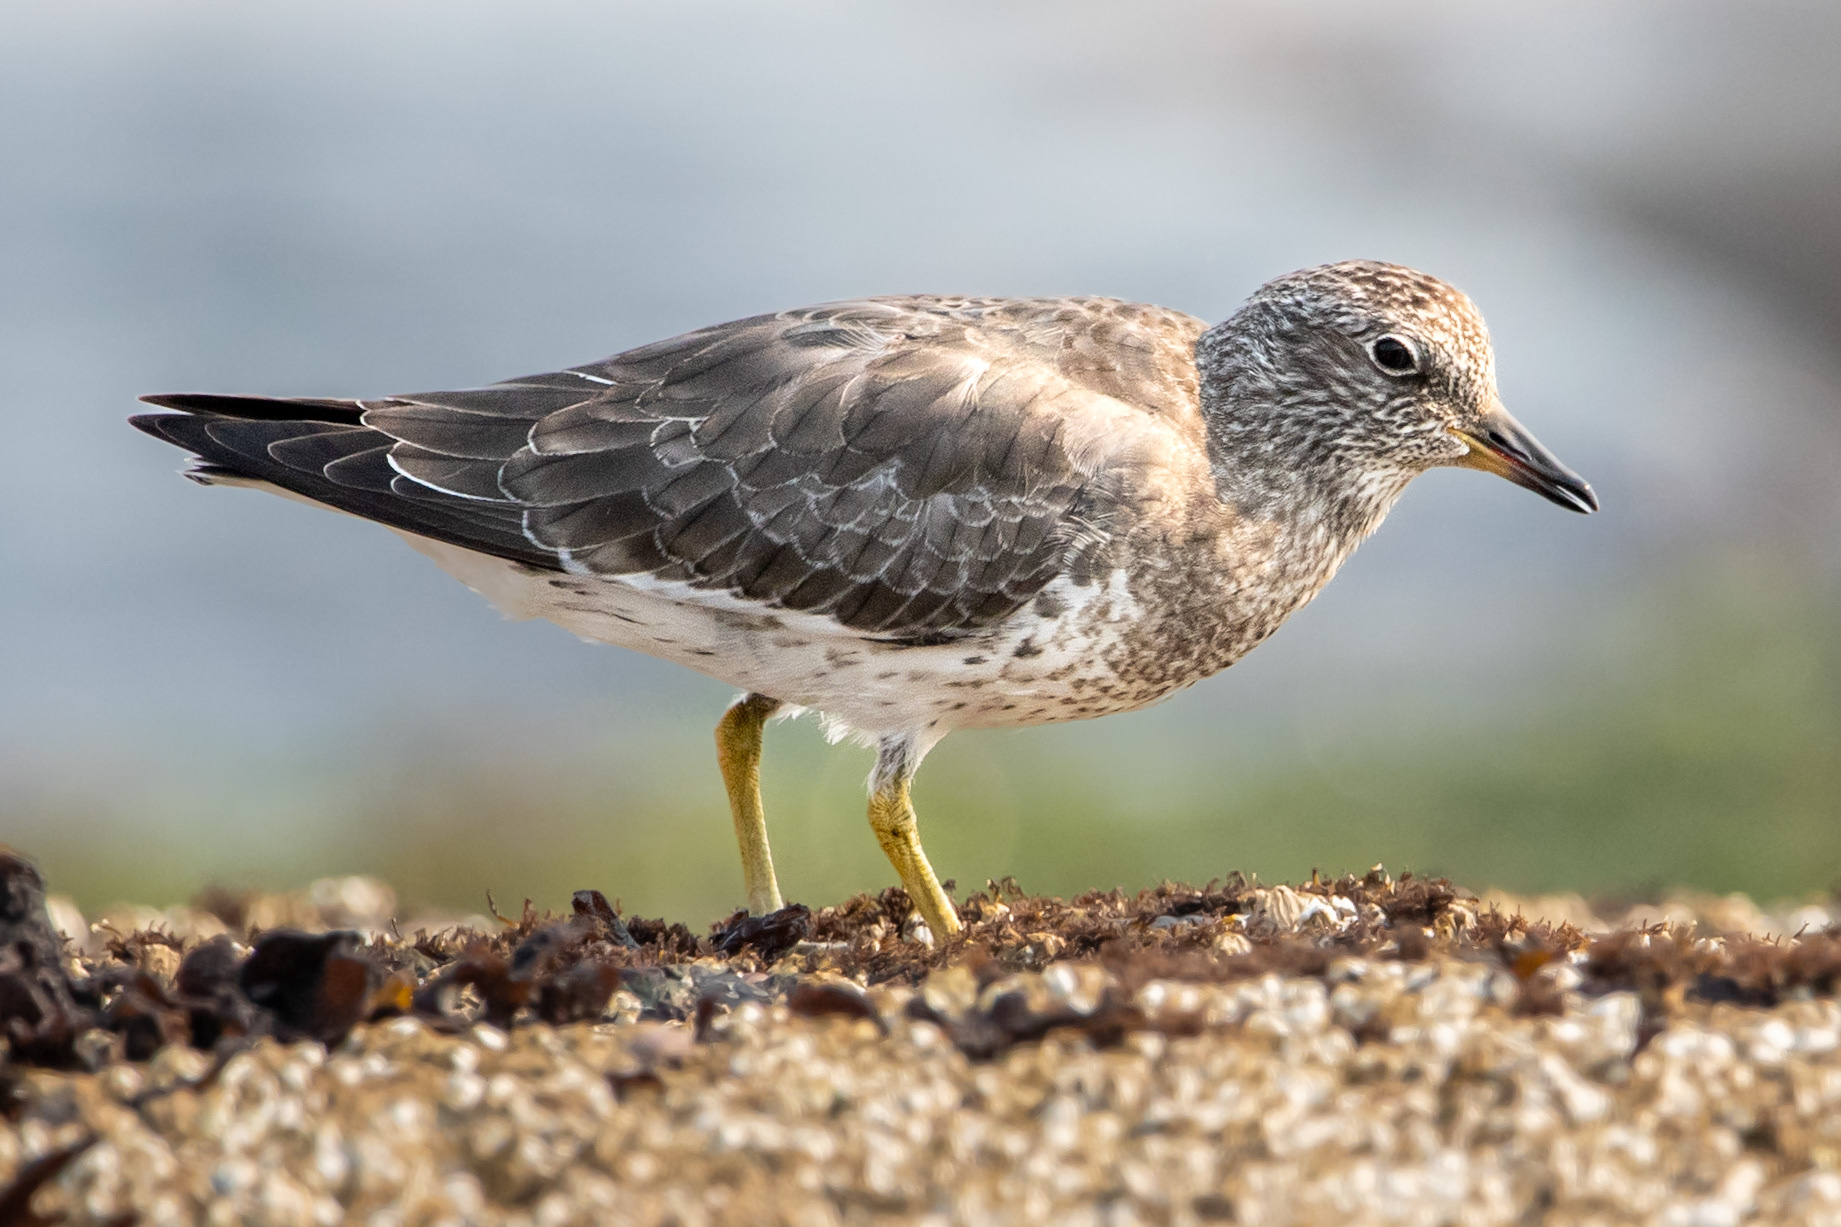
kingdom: Animalia
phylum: Chordata
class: Aves
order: Charadriiformes
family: Scolopacidae
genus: Calidris
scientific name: Calidris virgata
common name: Surfbird
